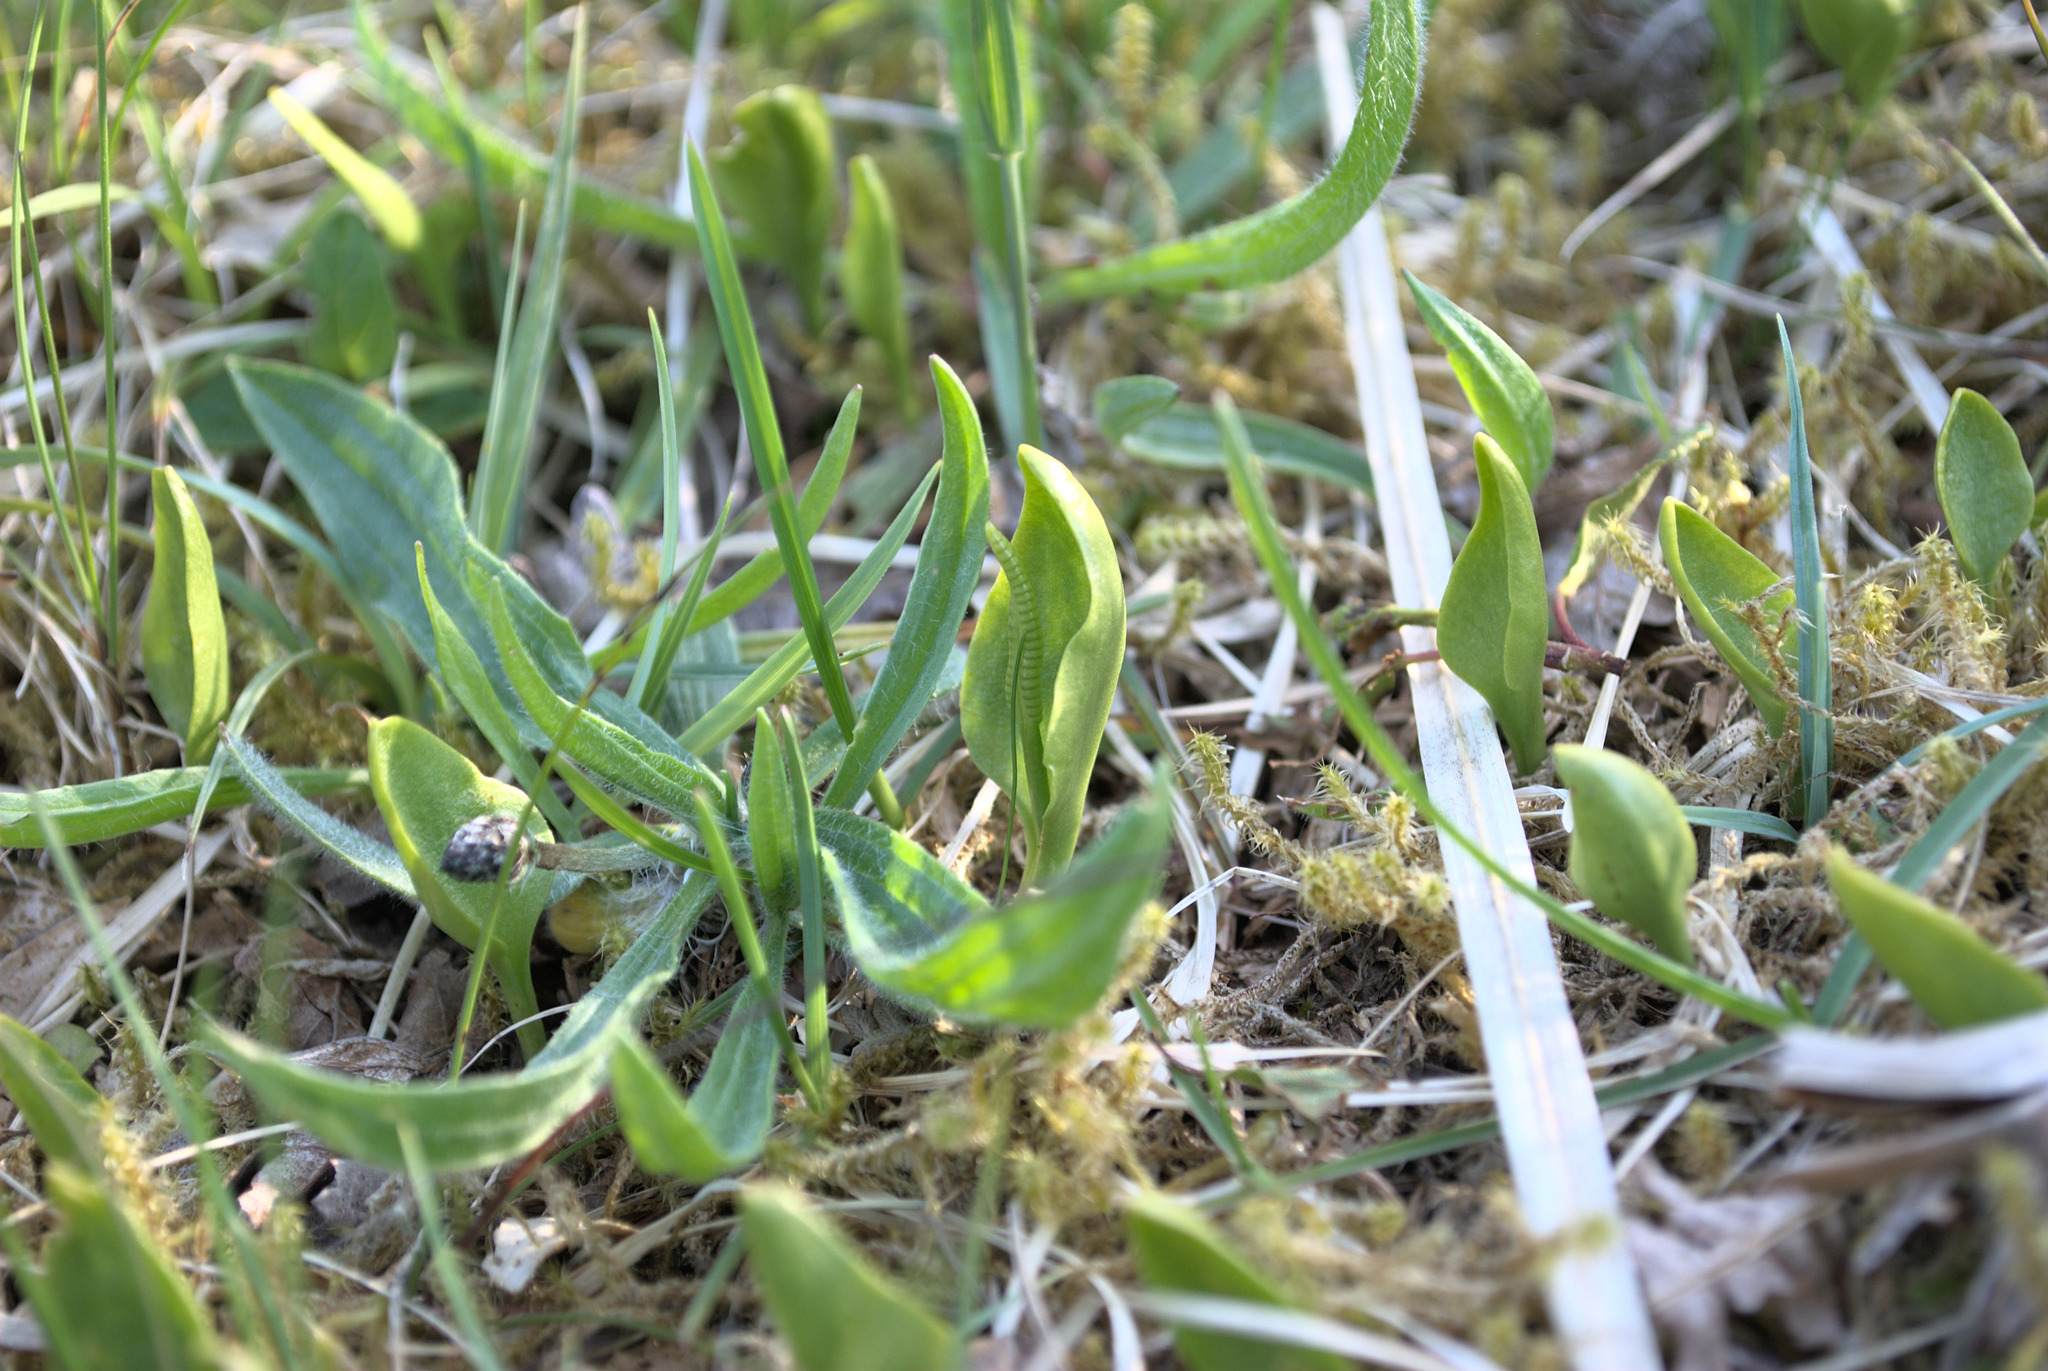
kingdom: Plantae
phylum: Tracheophyta
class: Polypodiopsida
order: Ophioglossales
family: Ophioglossaceae
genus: Ophioglossum
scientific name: Ophioglossum vulgatum
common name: Adder's-tongue
